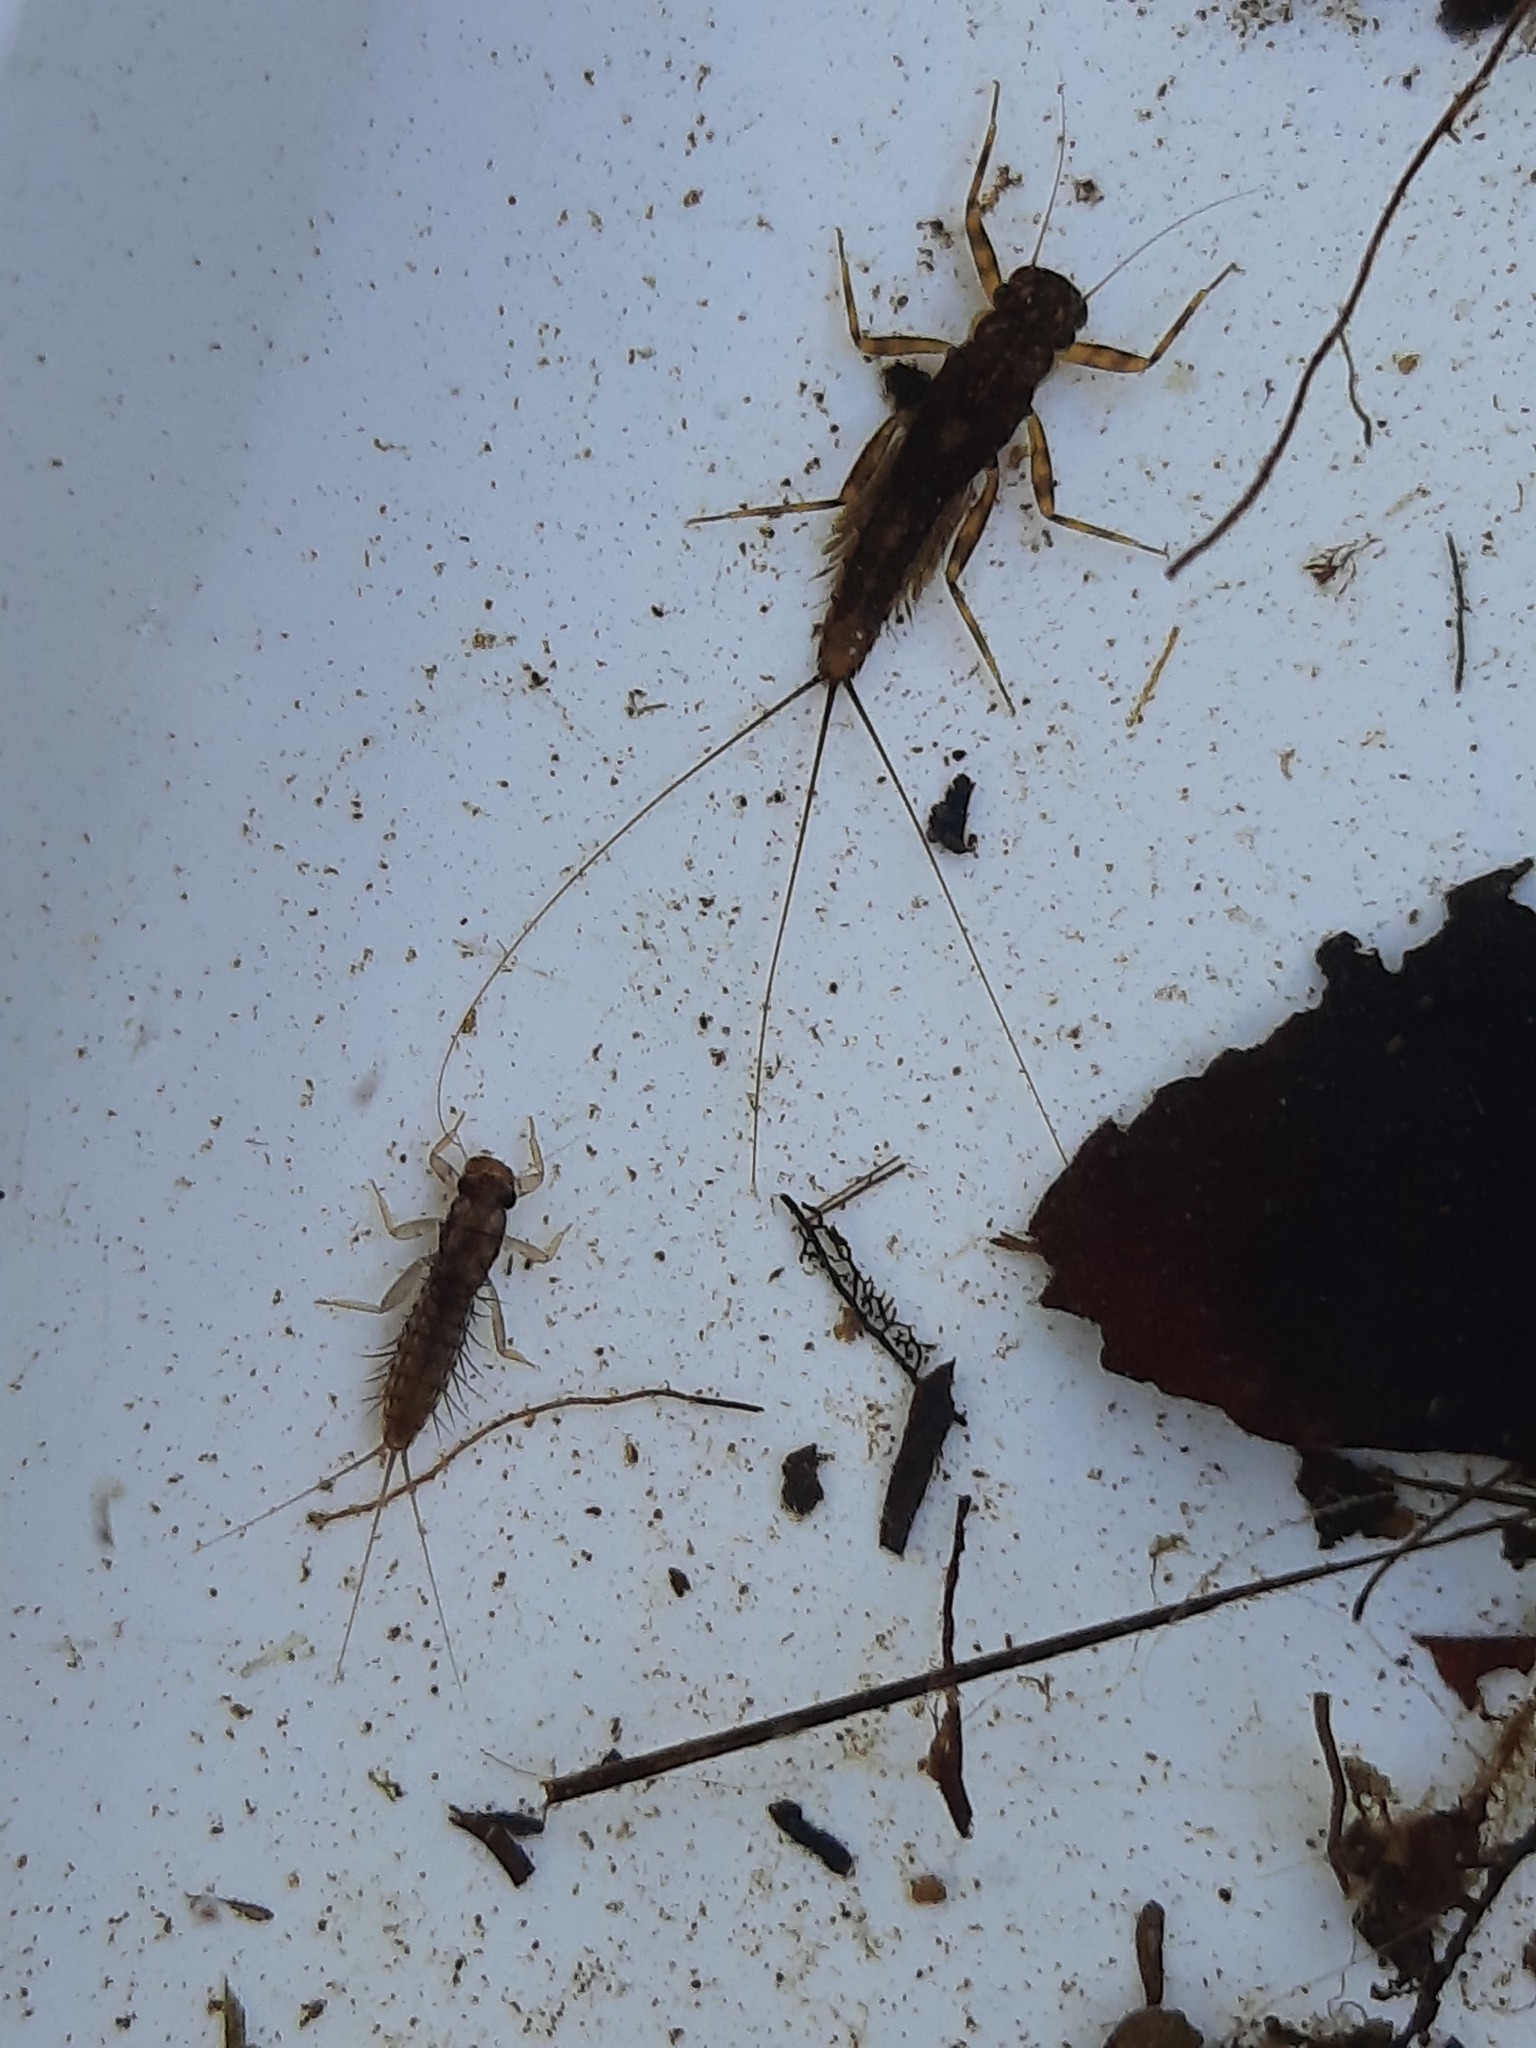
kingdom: Animalia
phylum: Arthropoda
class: Insecta
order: Ephemeroptera
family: Leptophlebiidae
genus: Neozephlebia
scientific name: Neozephlebia scita
